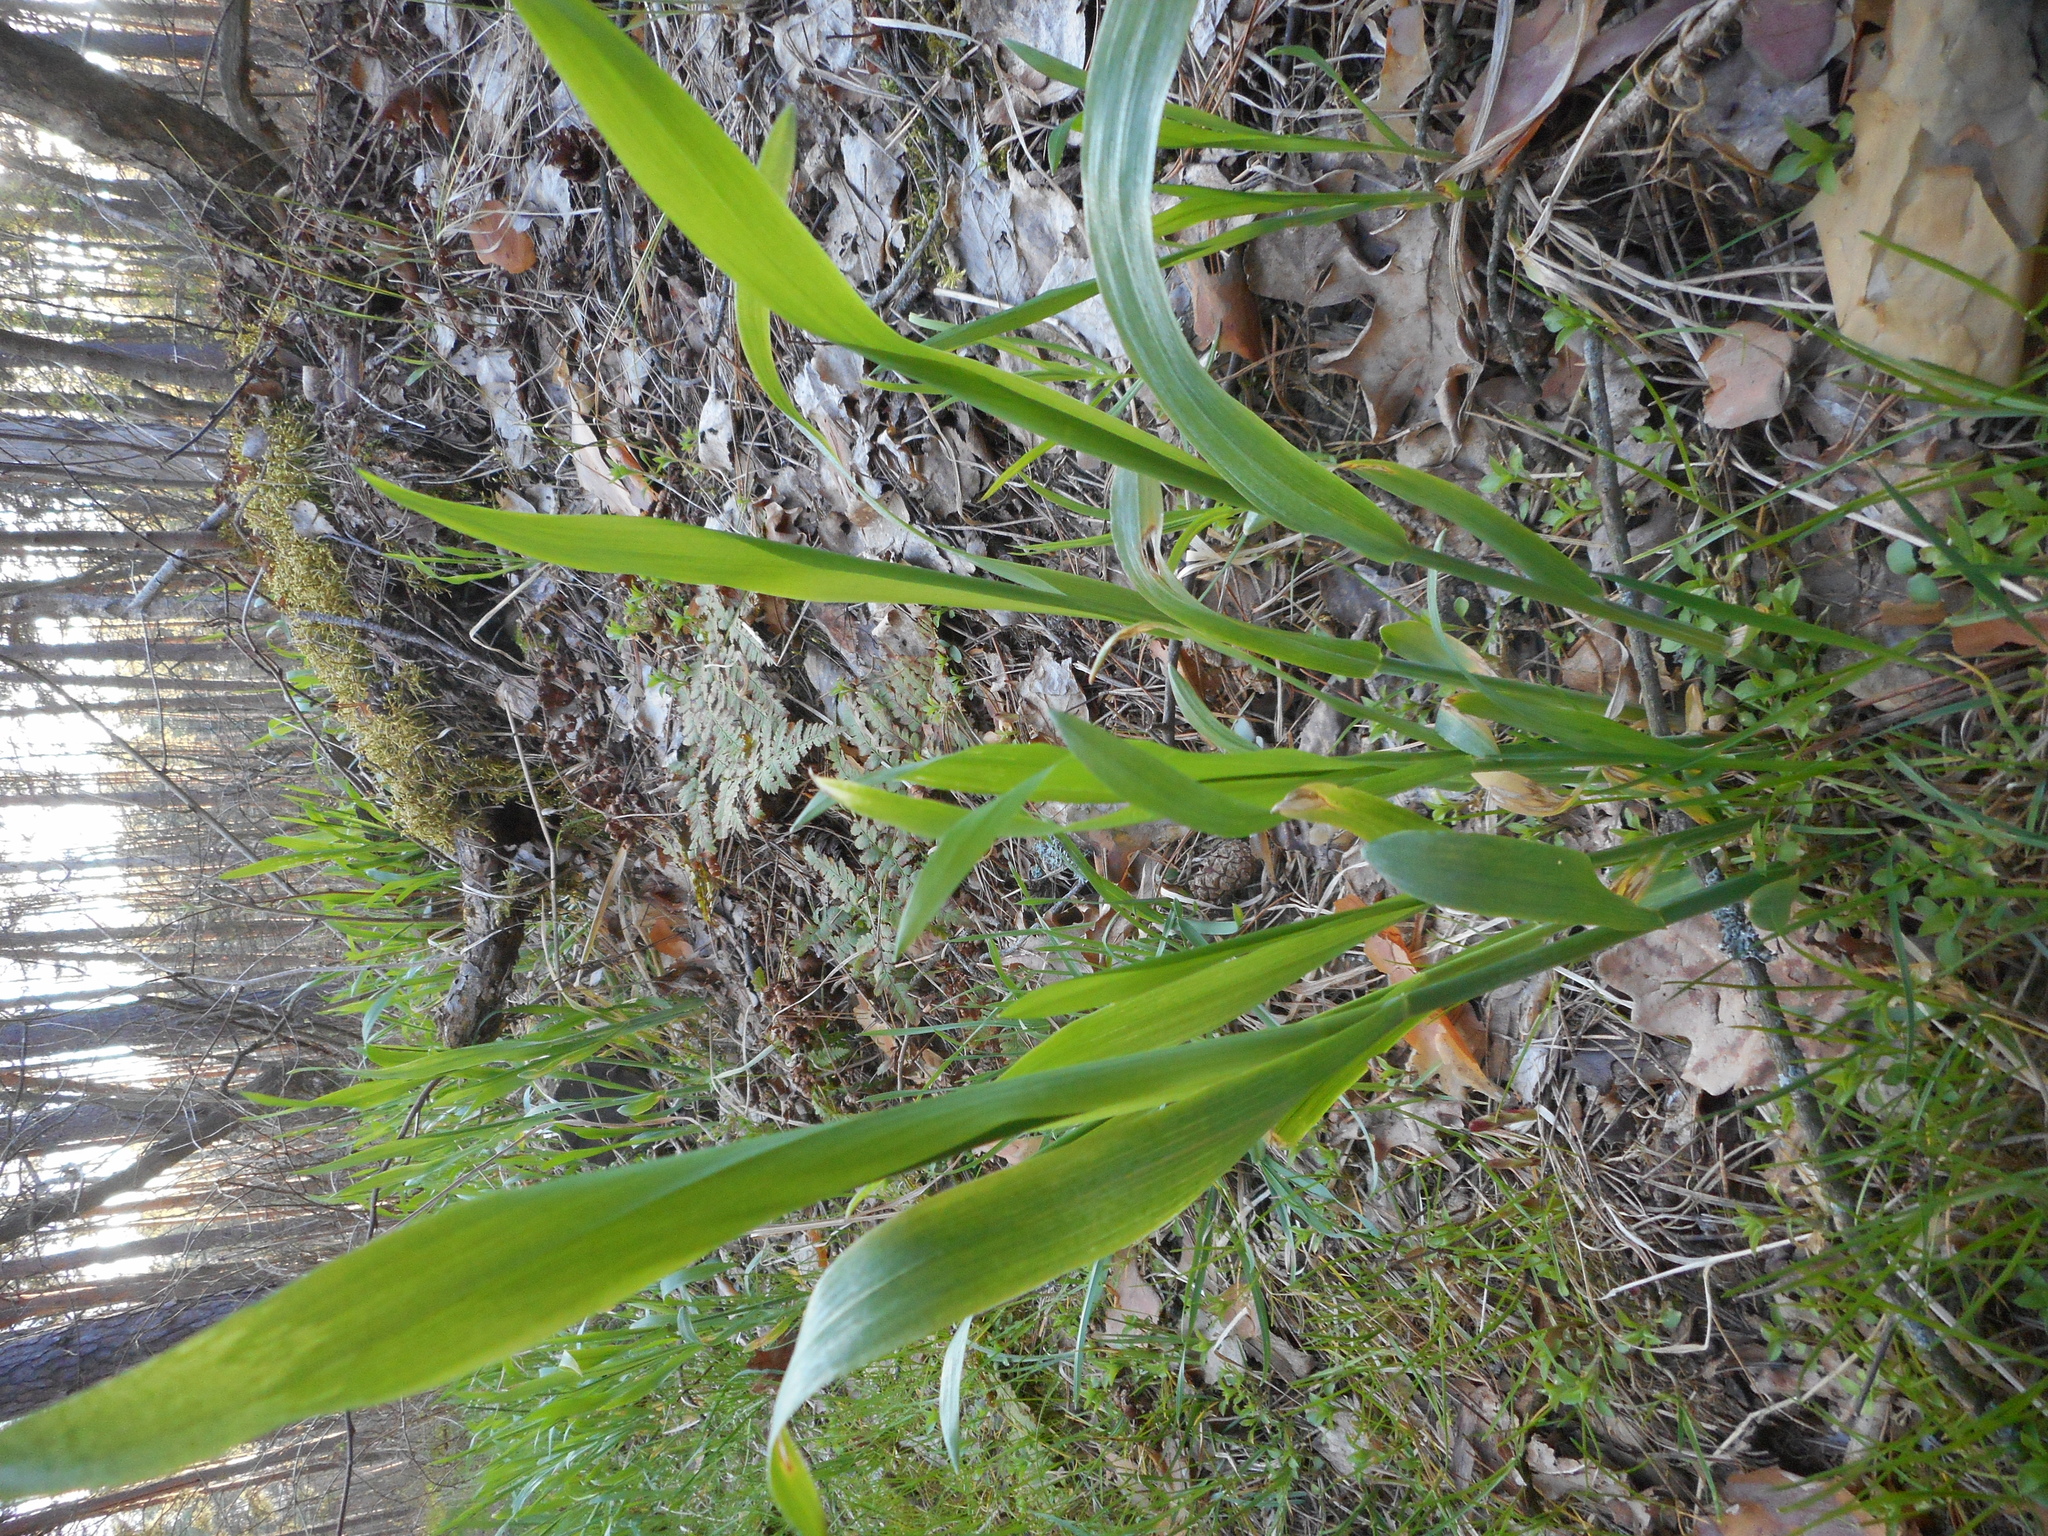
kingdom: Plantae
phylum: Tracheophyta
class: Liliopsida
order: Poales
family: Poaceae
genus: Milium
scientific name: Milium effusum
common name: Wood millet
